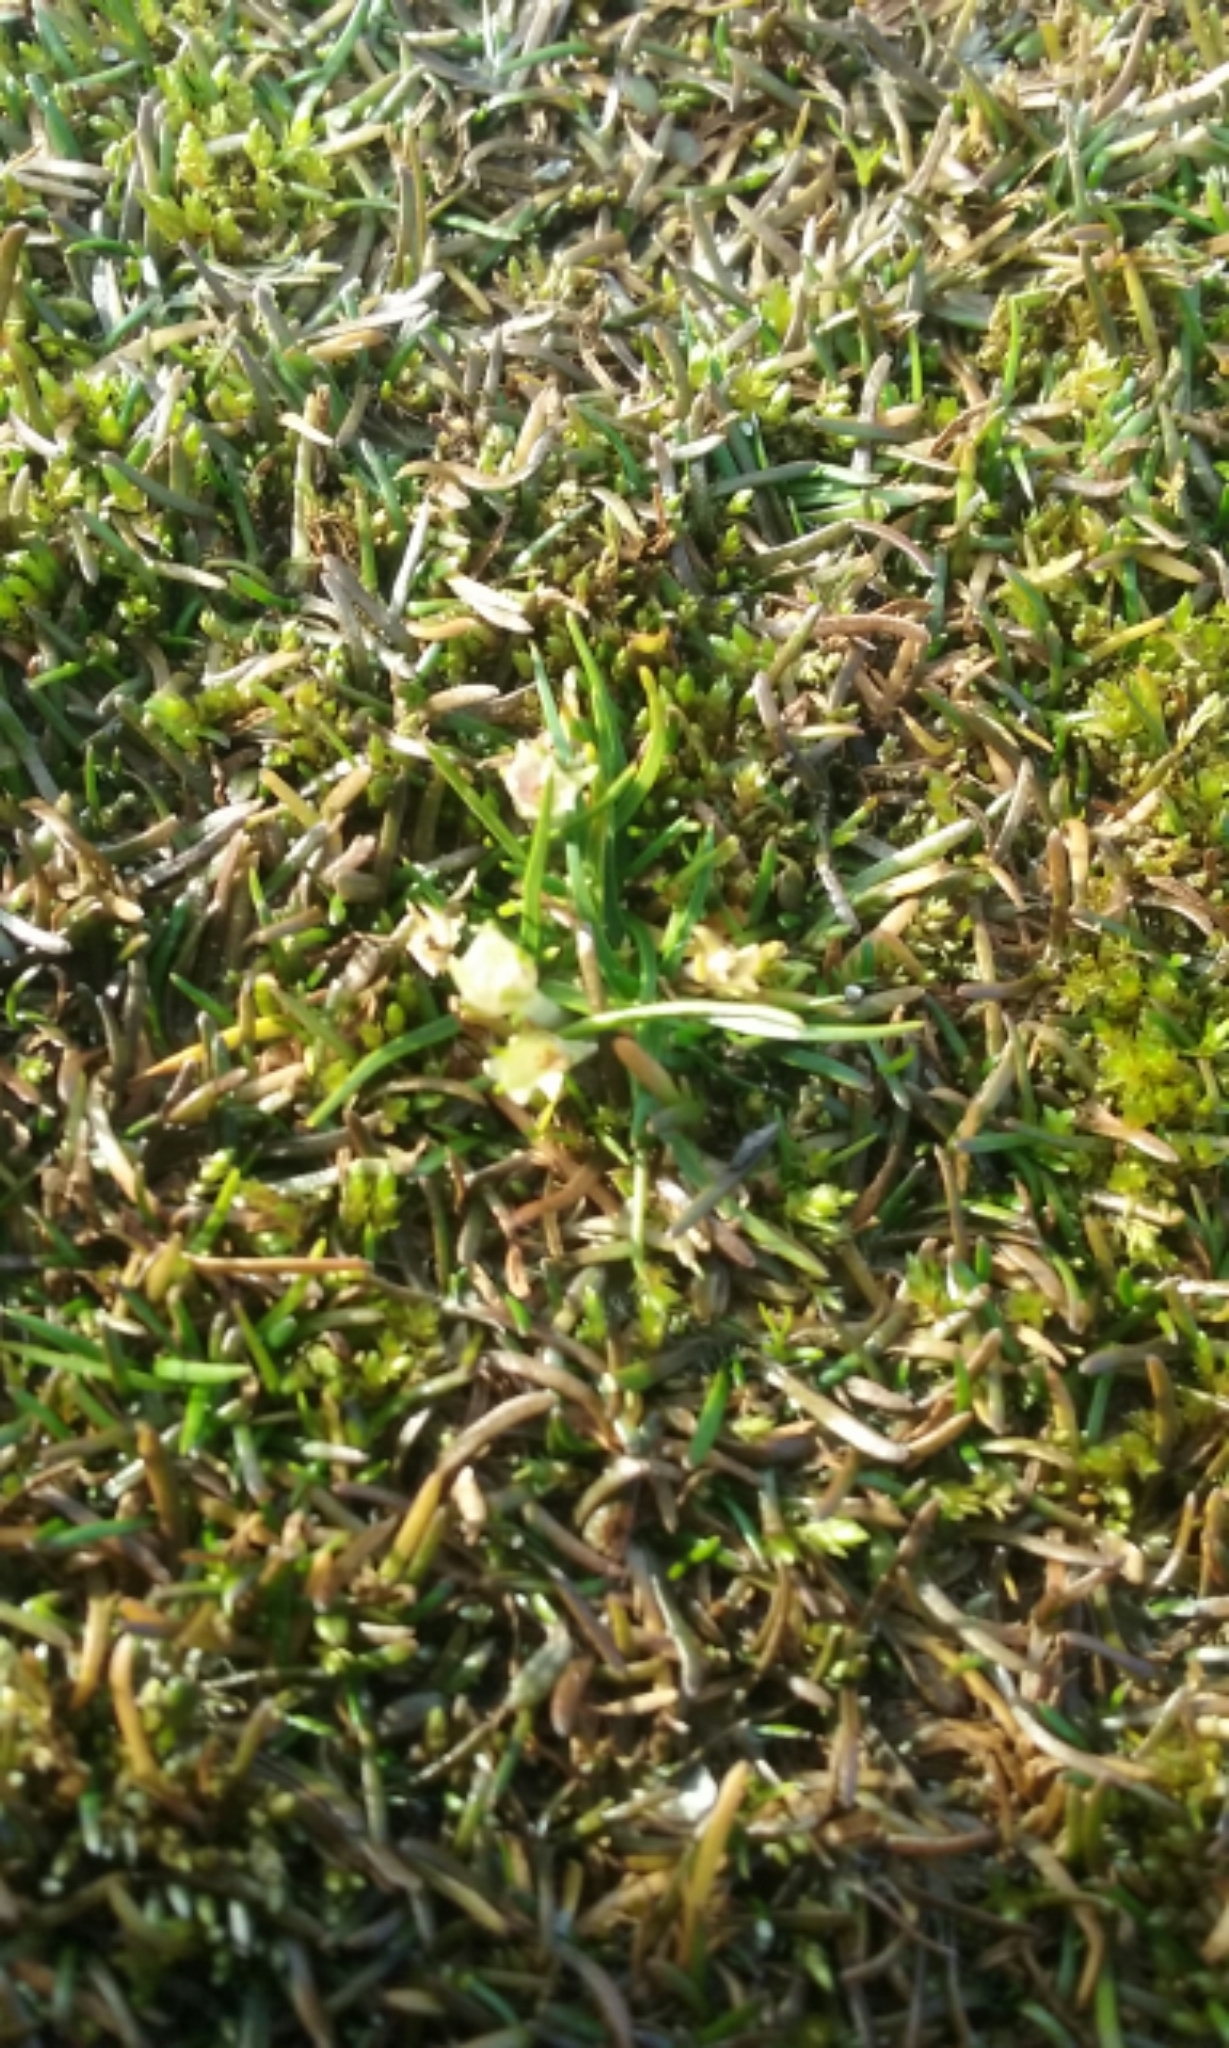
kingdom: Plantae
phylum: Tracheophyta
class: Magnoliopsida
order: Caryophyllales
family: Caryophyllaceae
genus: Colobanthus
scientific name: Colobanthus apetalus
